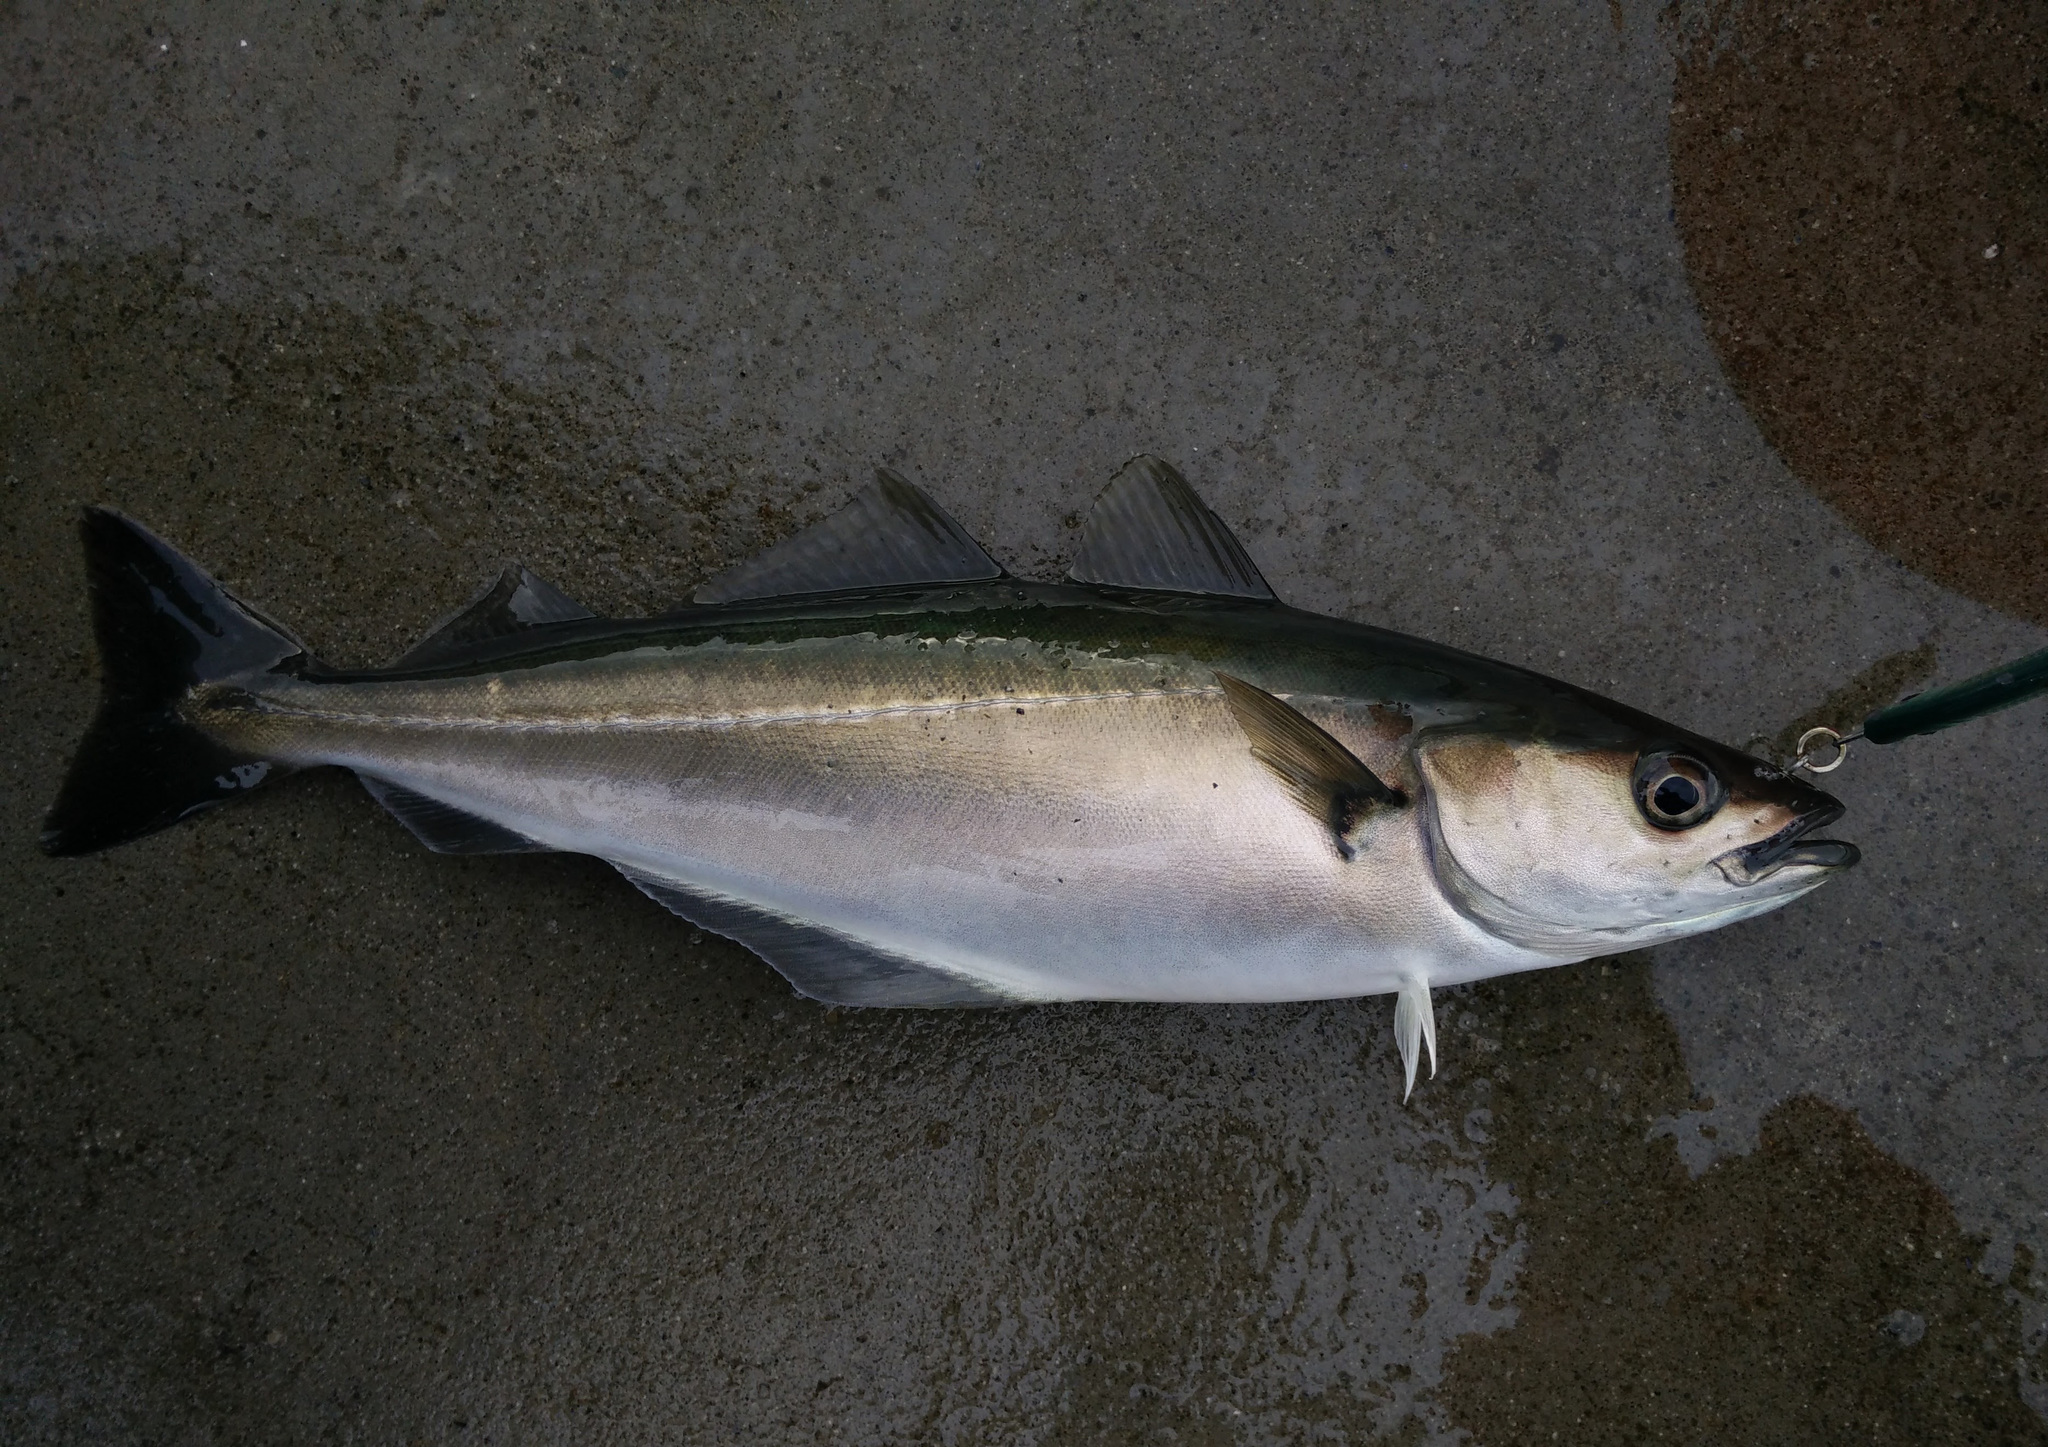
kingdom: Animalia
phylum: Chordata
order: Gadiformes
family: Gadidae
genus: Pollachius
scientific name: Pollachius virens
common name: Saithe
